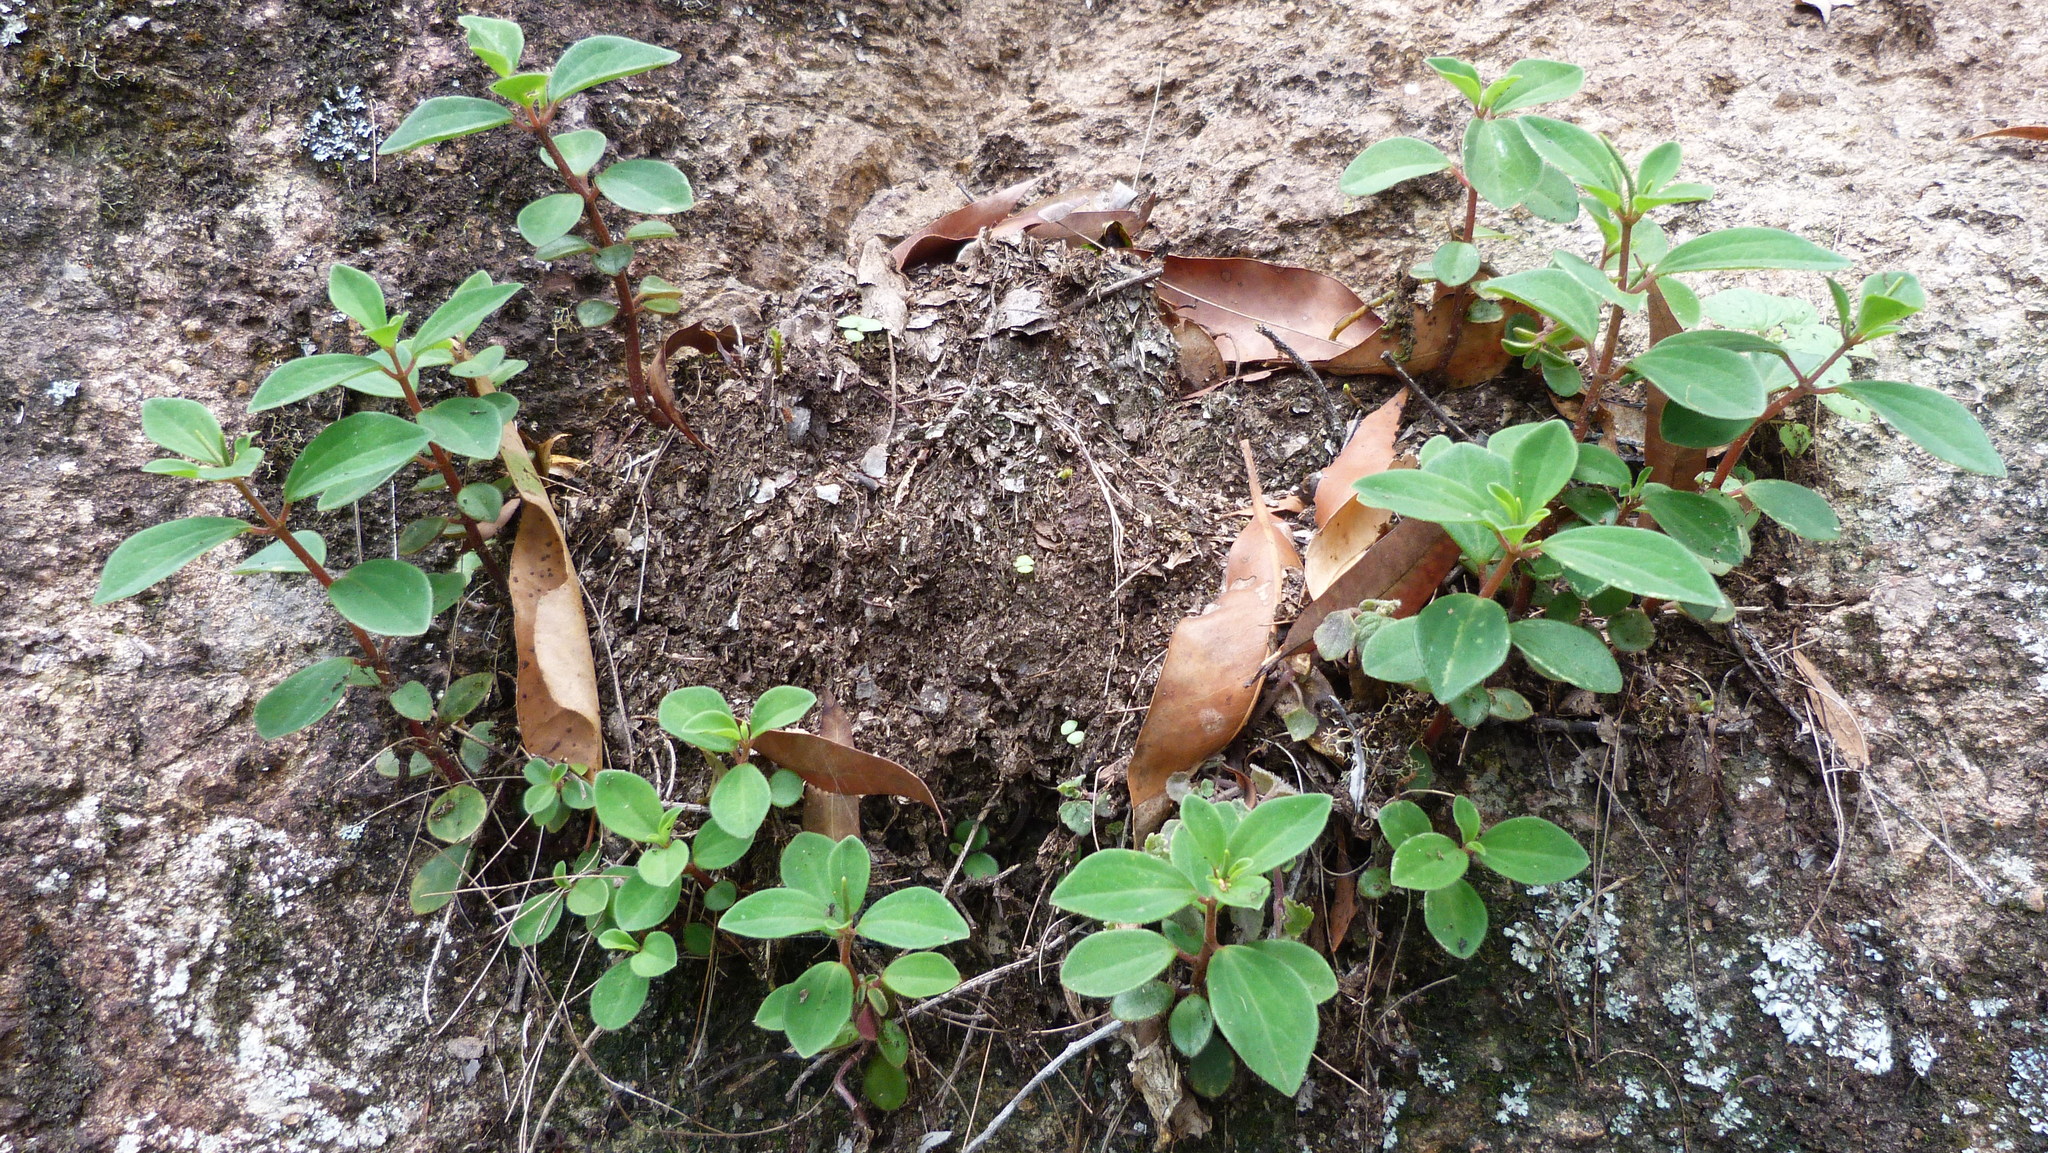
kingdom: Plantae
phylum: Tracheophyta
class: Magnoliopsida
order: Piperales
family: Piperaceae
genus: Peperomia
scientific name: Peperomia leptostachya
